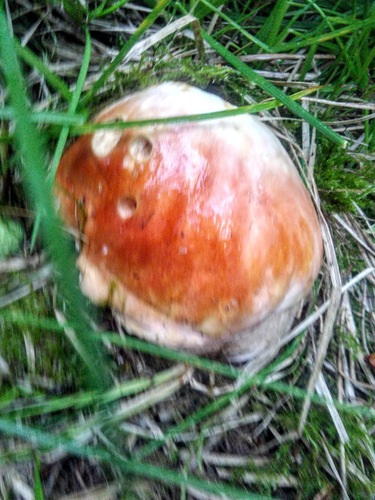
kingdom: Fungi
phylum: Basidiomycota
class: Agaricomycetes
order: Boletales
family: Boletaceae
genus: Boletus
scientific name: Boletus edulis
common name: Cep
